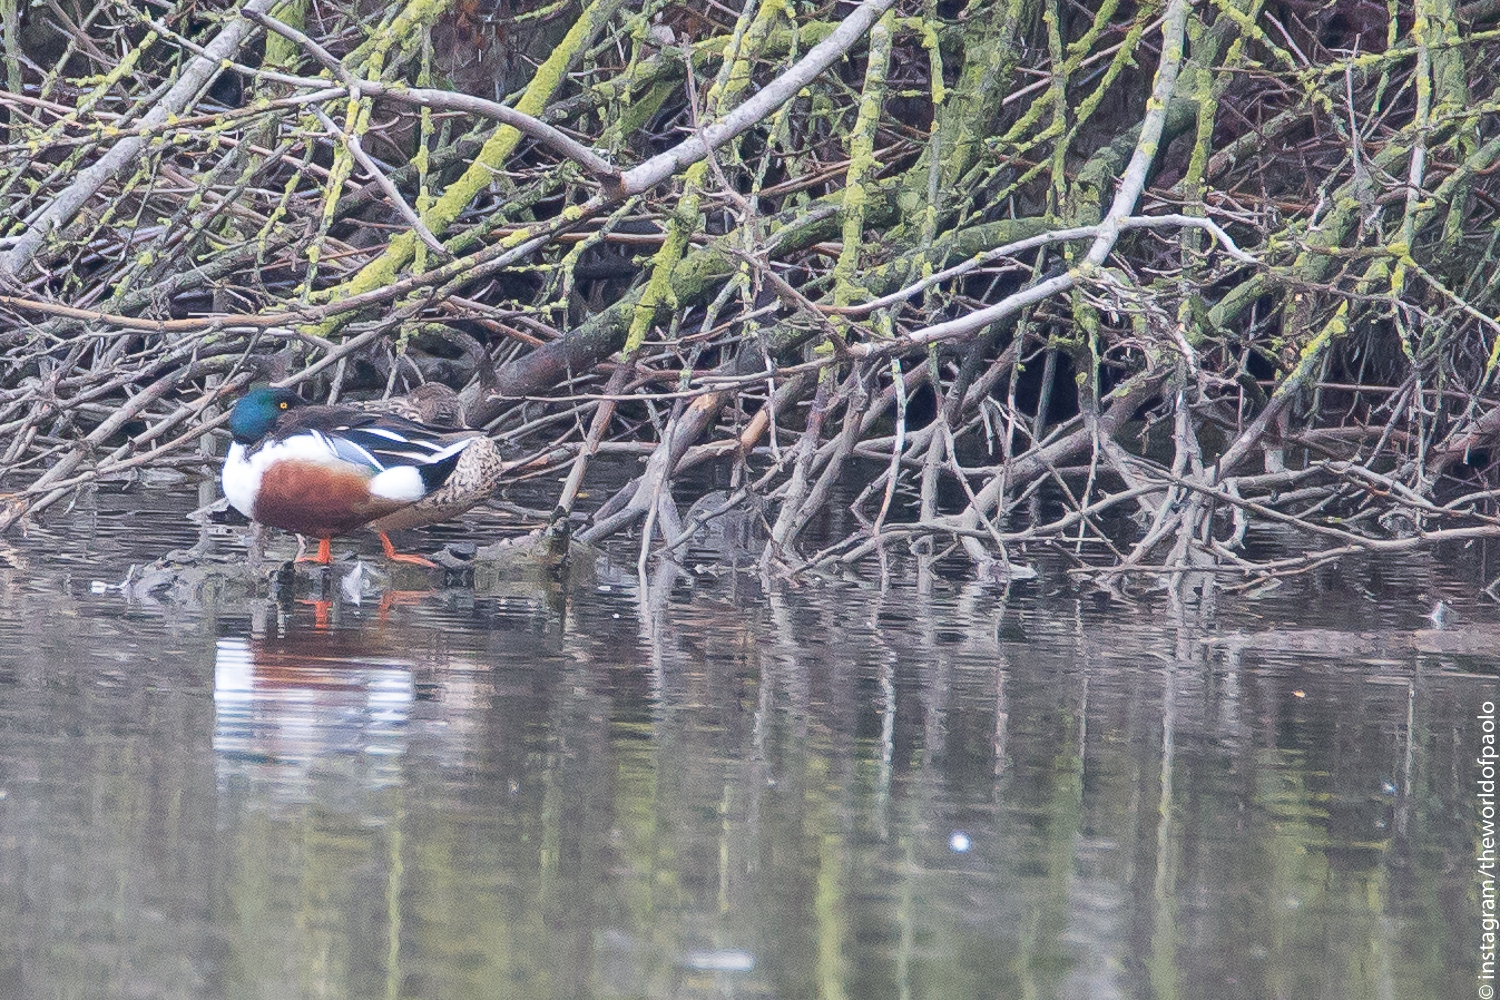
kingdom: Animalia
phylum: Chordata
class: Aves
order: Anseriformes
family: Anatidae
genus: Spatula
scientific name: Spatula clypeata
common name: Northern shoveler
